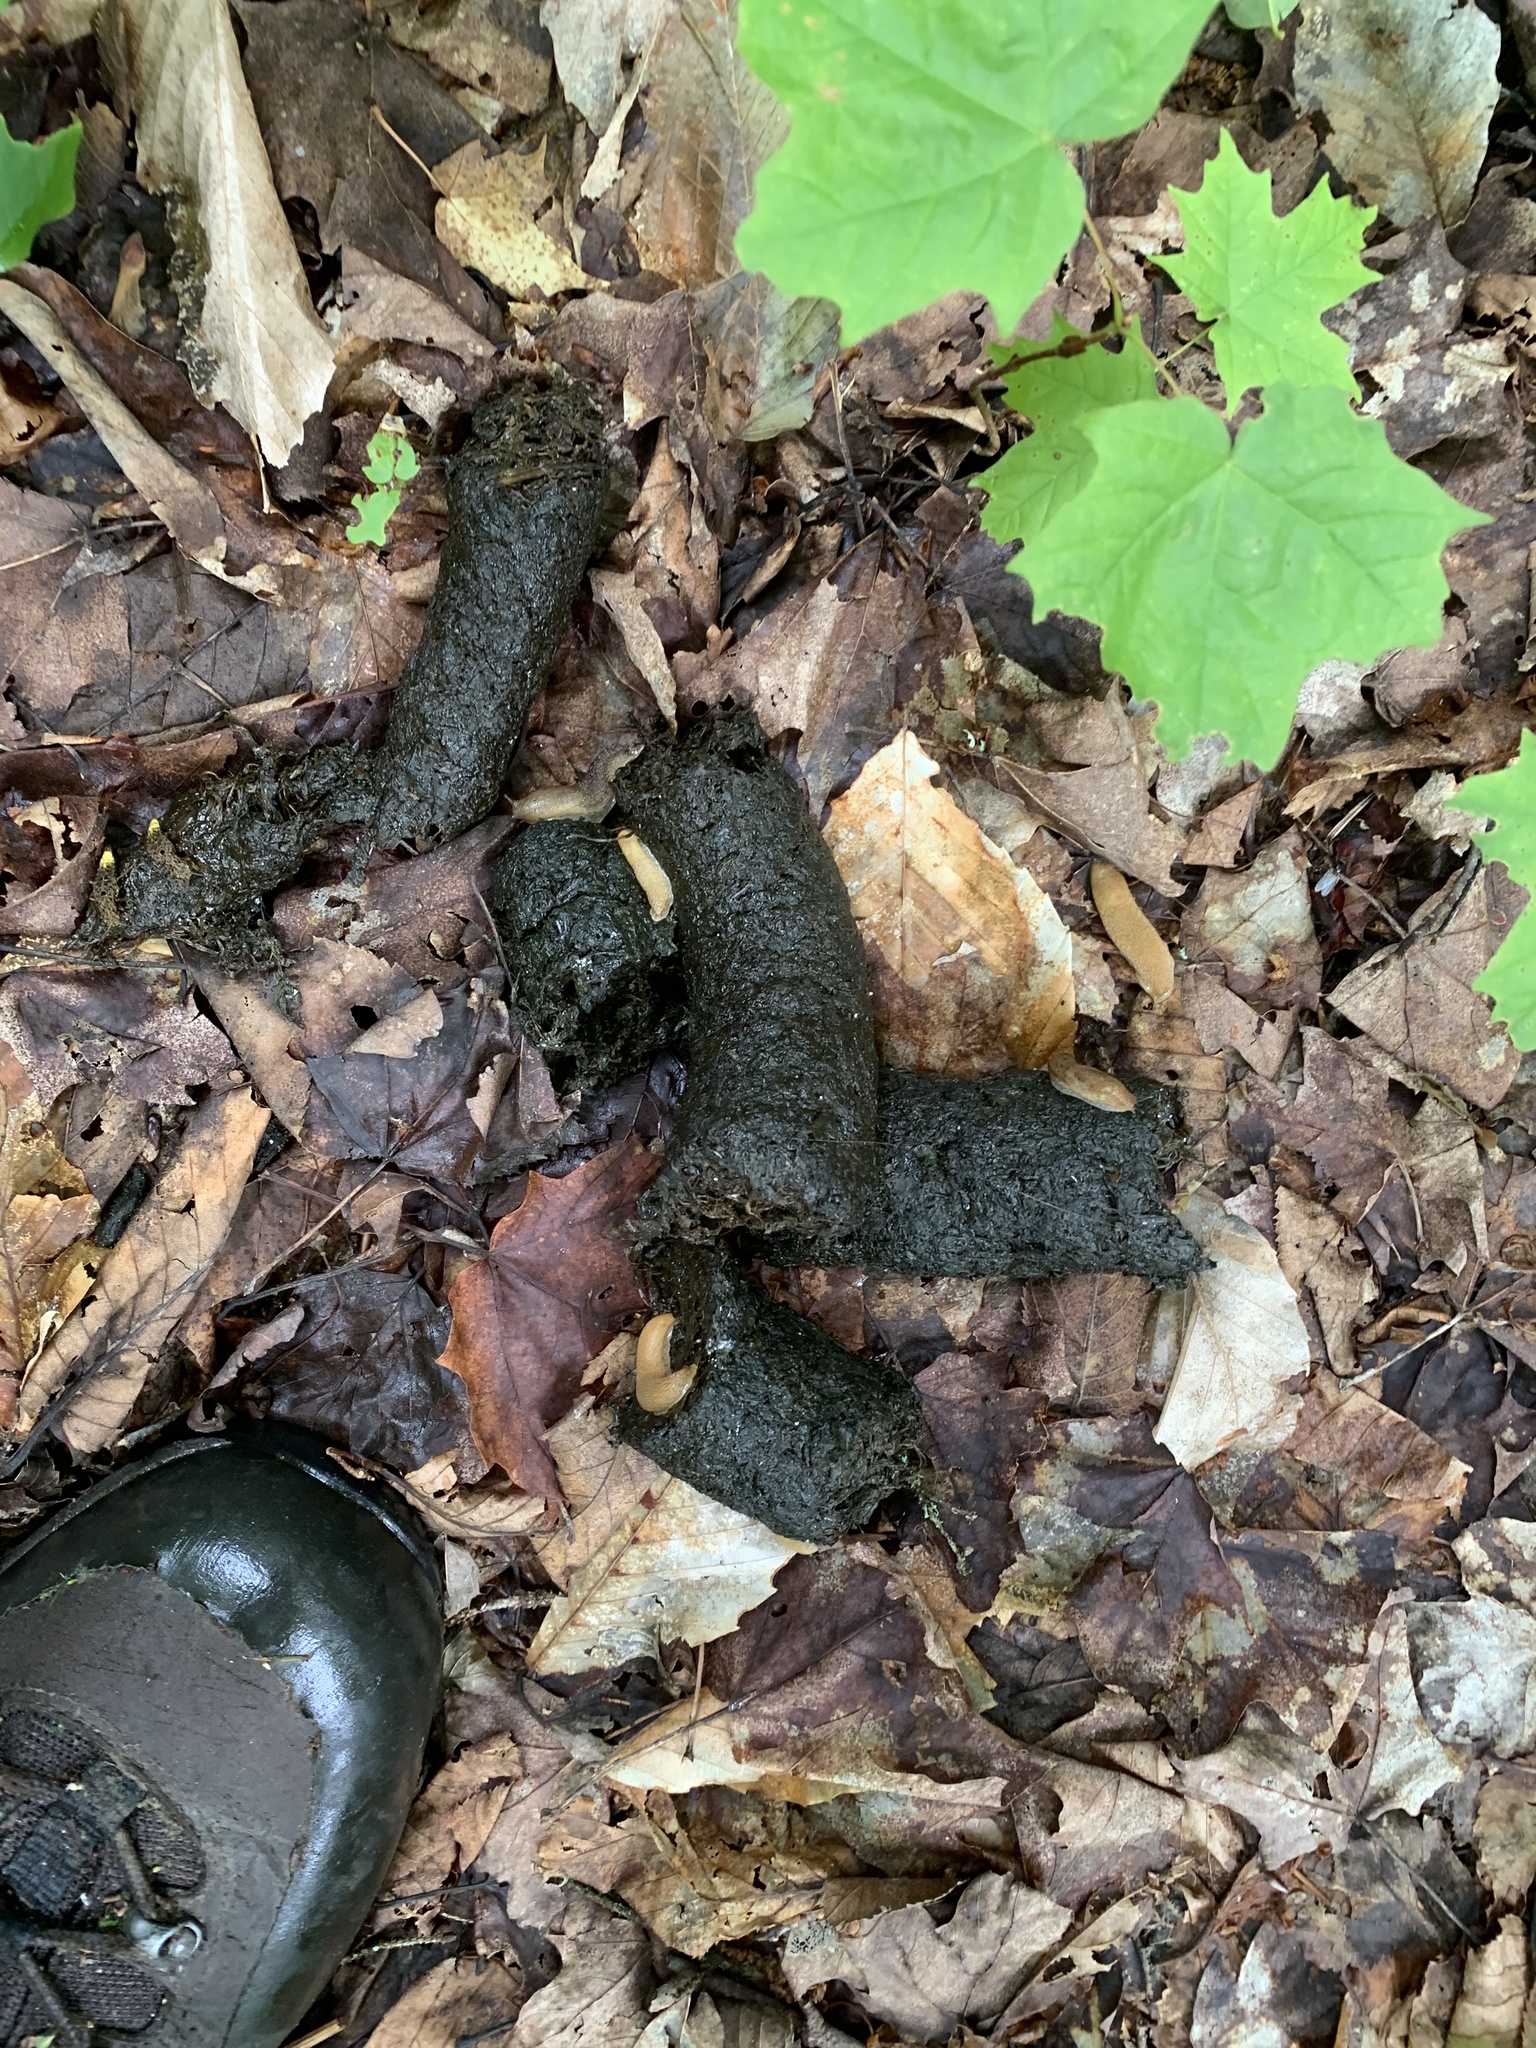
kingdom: Animalia
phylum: Chordata
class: Mammalia
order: Carnivora
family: Ursidae
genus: Ursus
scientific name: Ursus americanus
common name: American black bear
